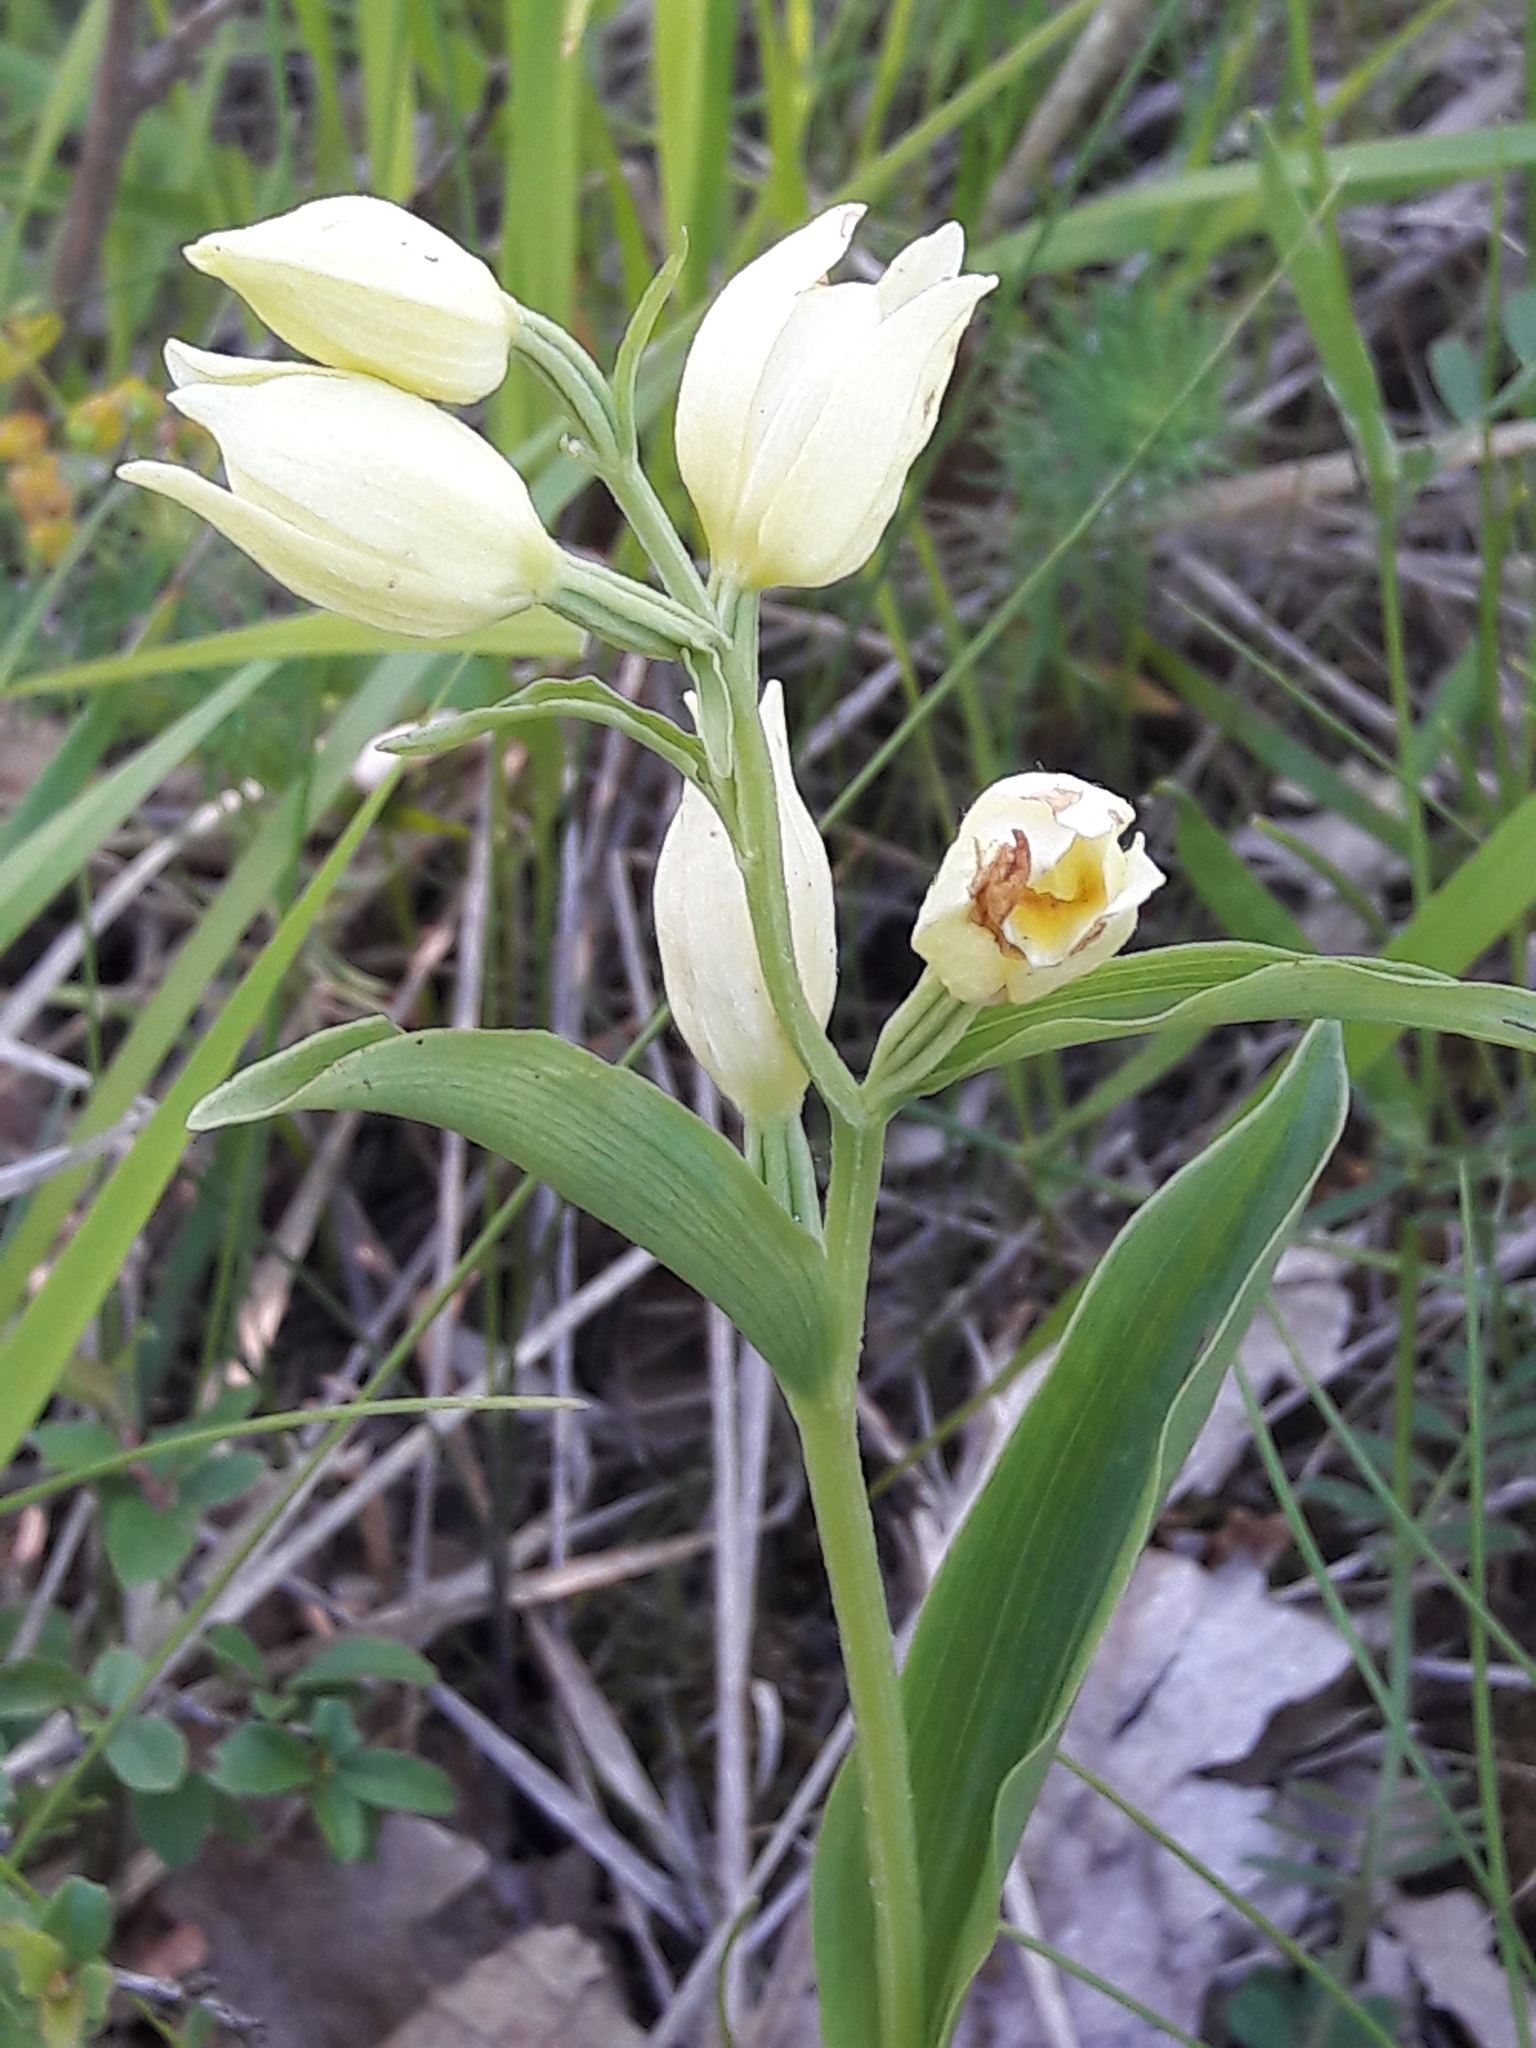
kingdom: Plantae
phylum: Tracheophyta
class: Liliopsida
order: Asparagales
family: Orchidaceae
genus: Cephalanthera
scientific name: Cephalanthera damasonium
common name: White helleborine
